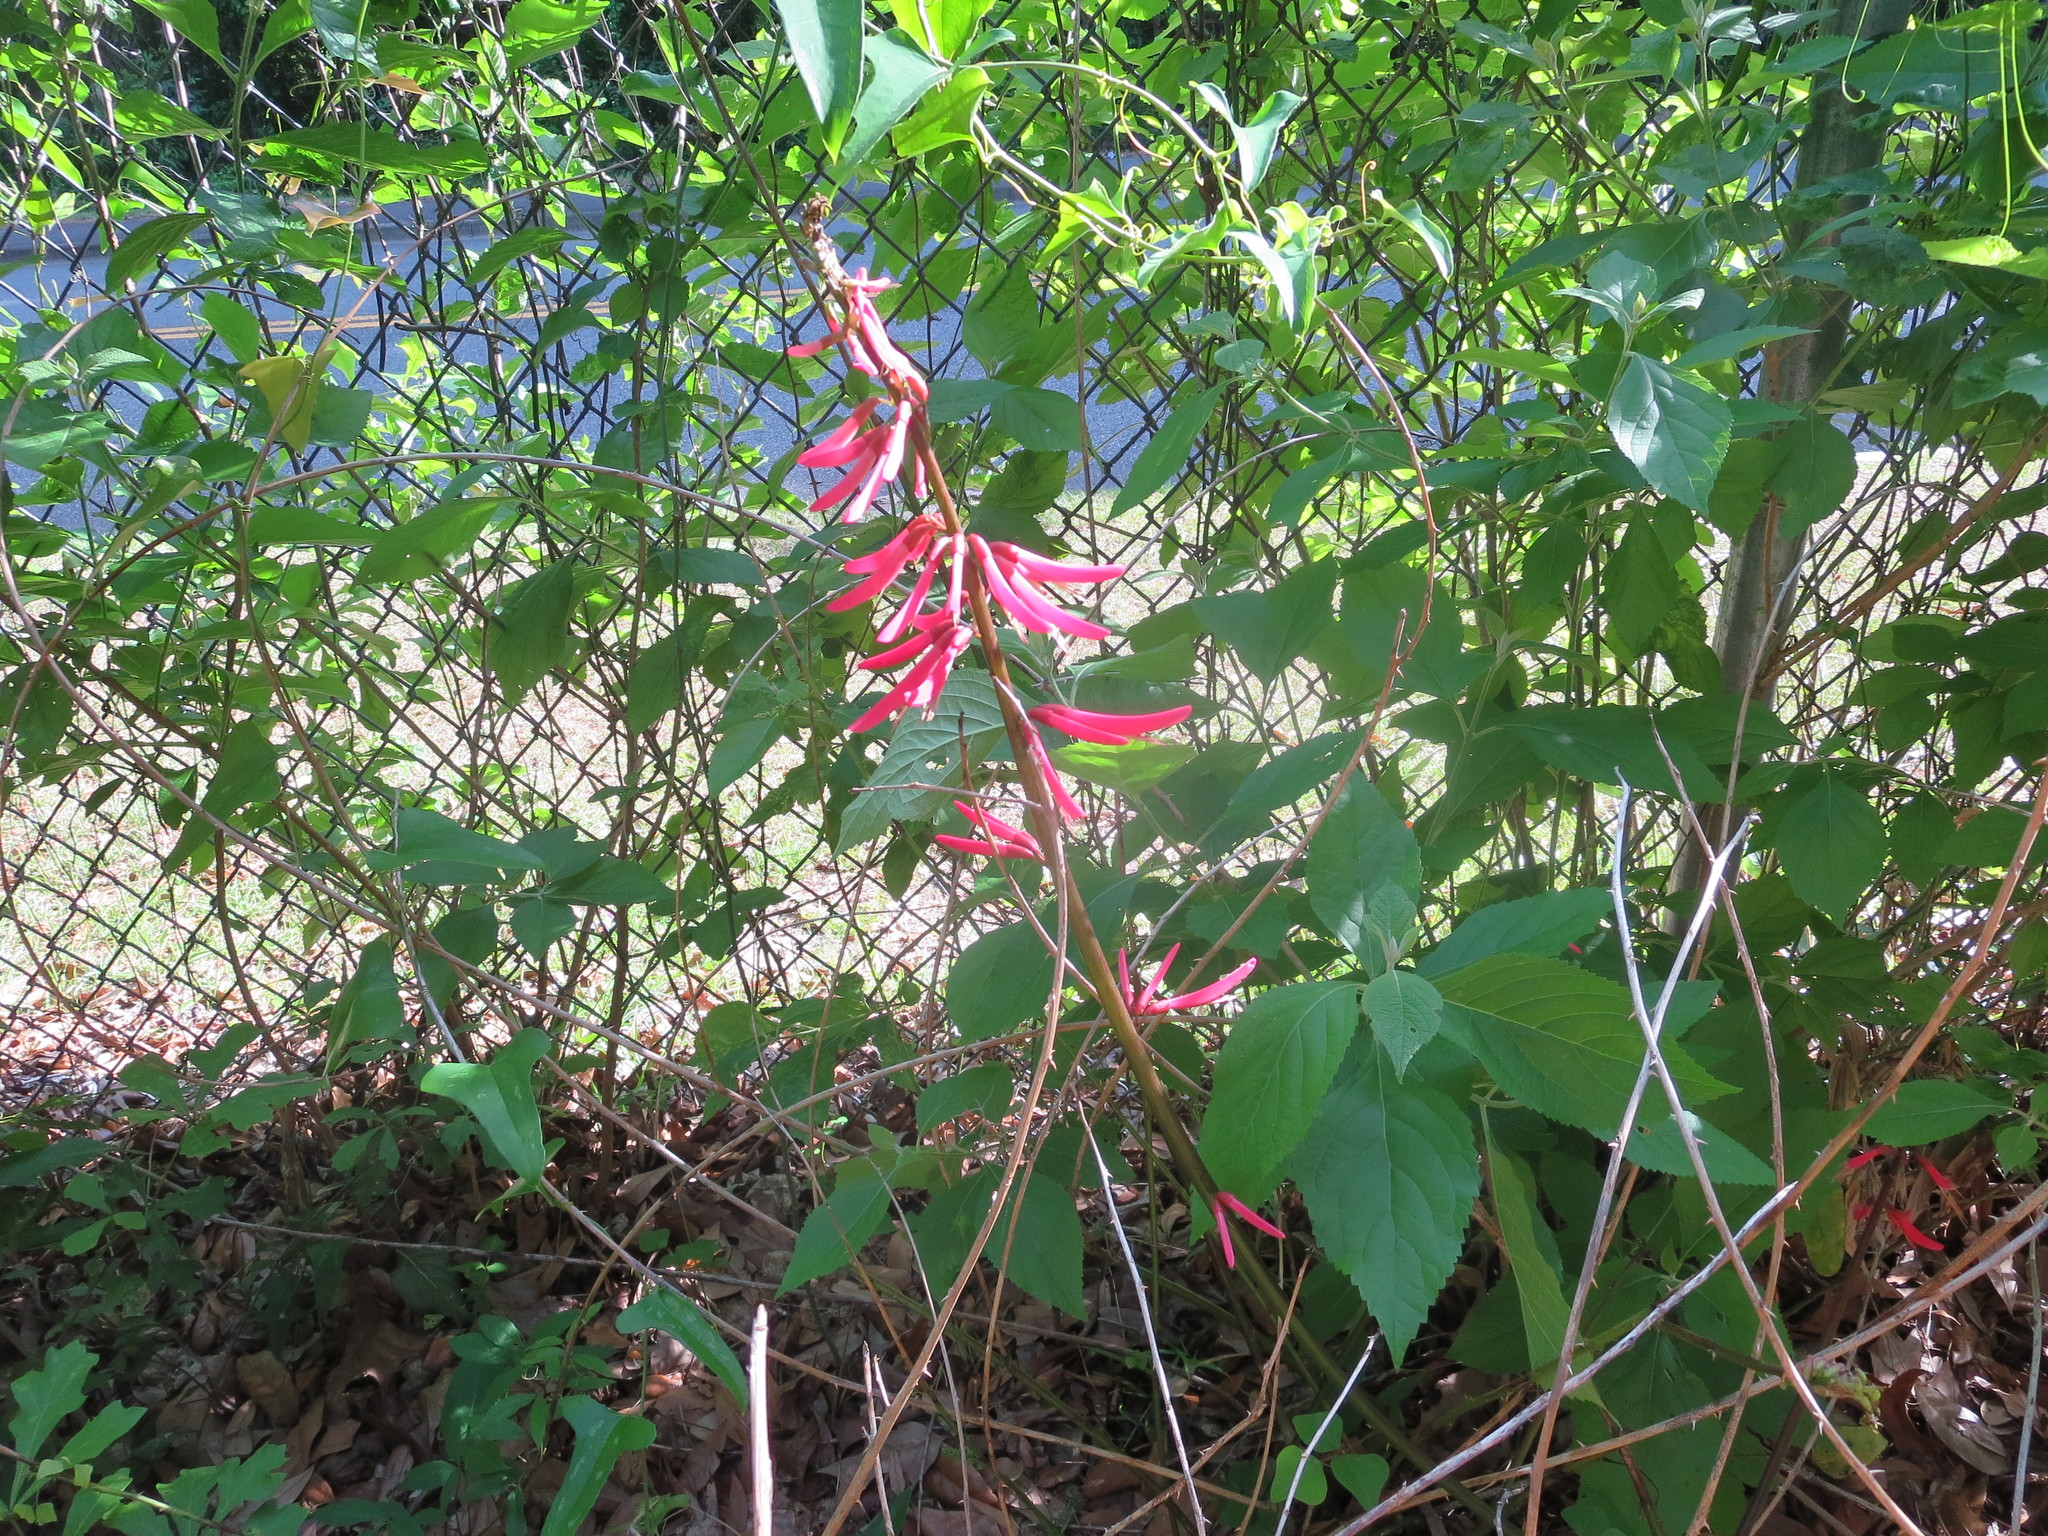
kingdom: Plantae
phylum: Tracheophyta
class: Magnoliopsida
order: Fabales
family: Fabaceae
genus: Erythrina
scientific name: Erythrina herbacea
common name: Coral-bean
